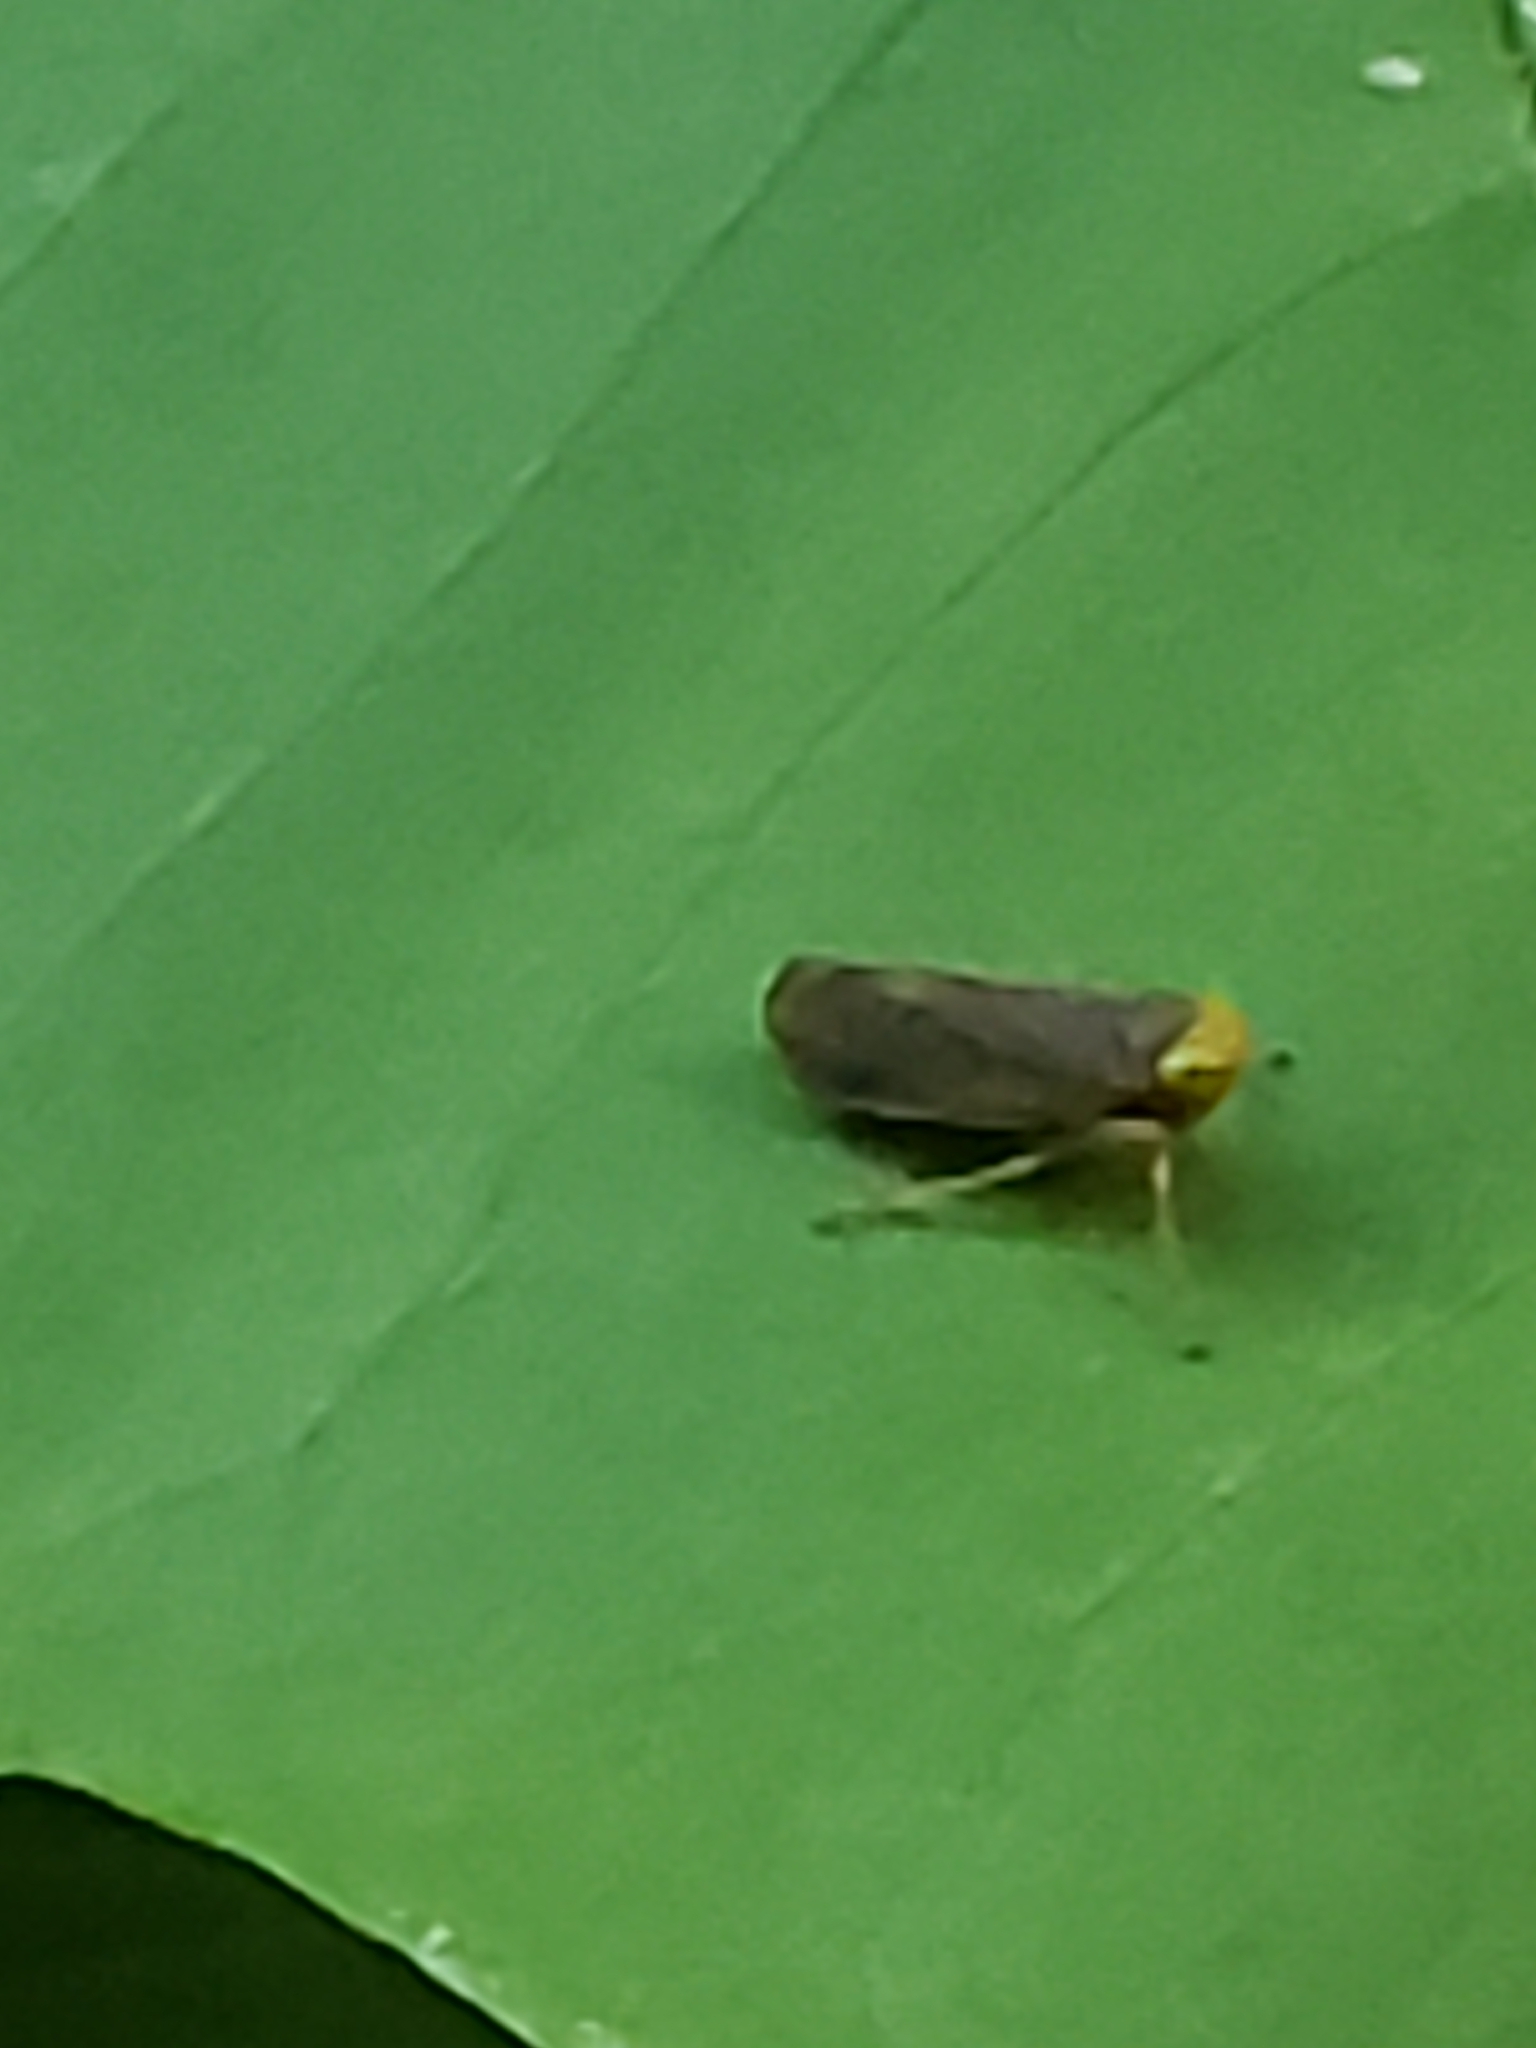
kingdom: Animalia
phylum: Arthropoda
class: Insecta
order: Hemiptera
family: Cicadellidae
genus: Jikradia
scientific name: Jikradia olitoria
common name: Coppery leafhopper
